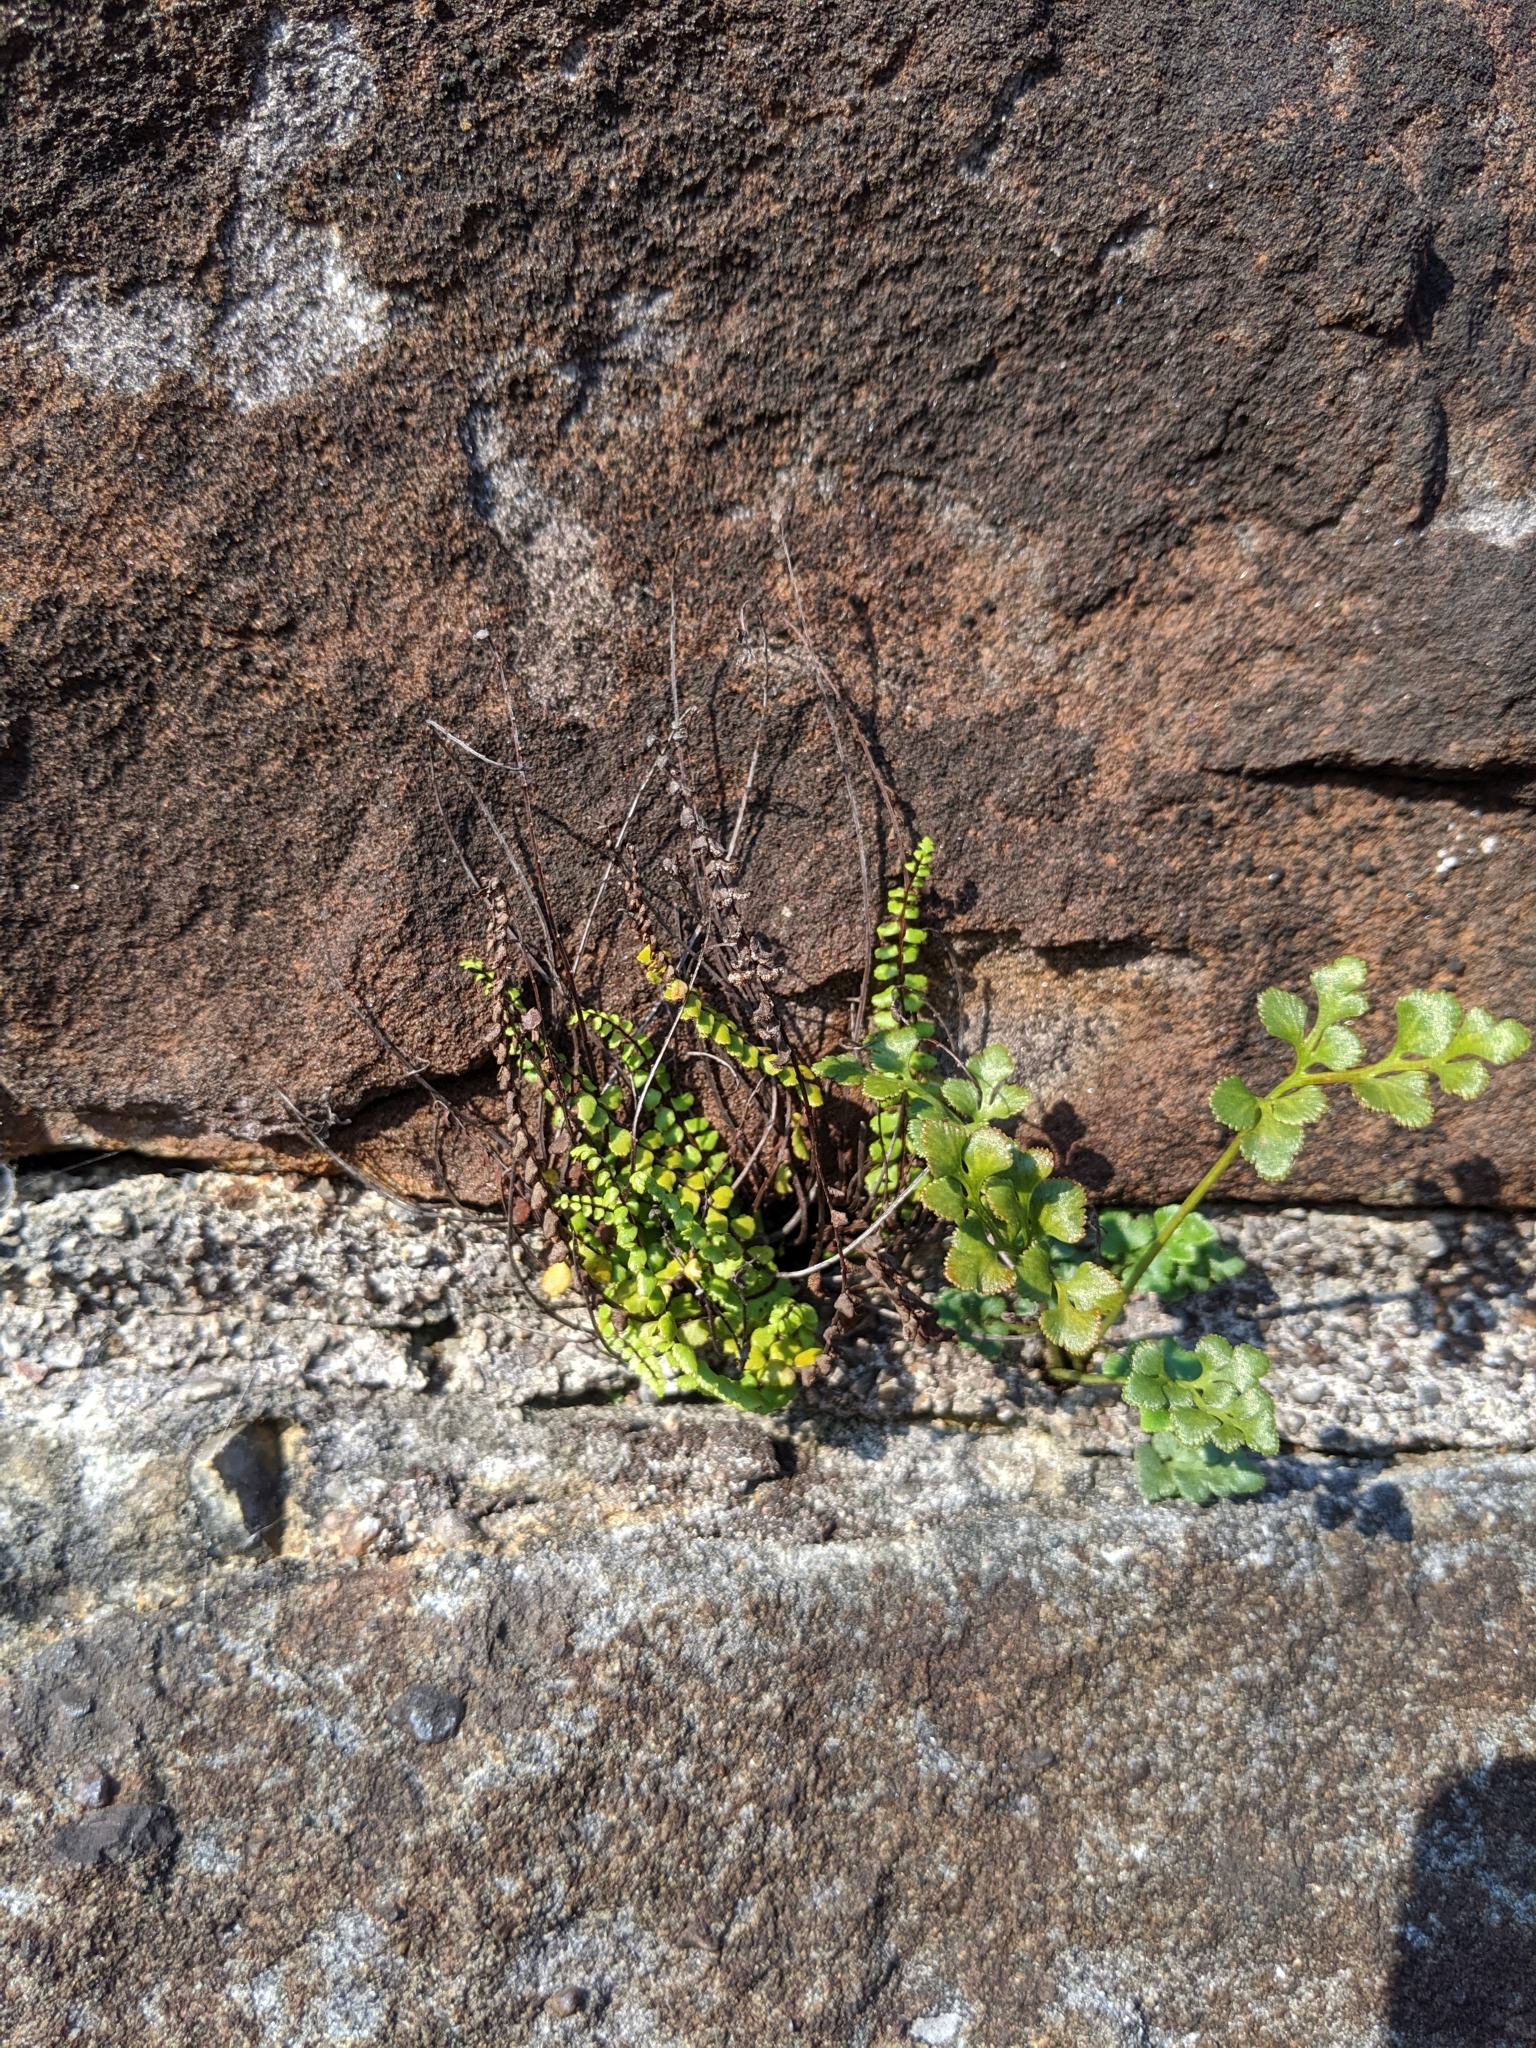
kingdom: Plantae
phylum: Tracheophyta
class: Polypodiopsida
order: Polypodiales
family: Aspleniaceae
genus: Asplenium
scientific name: Asplenium trichomanes
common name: Maidenhair spleenwort
